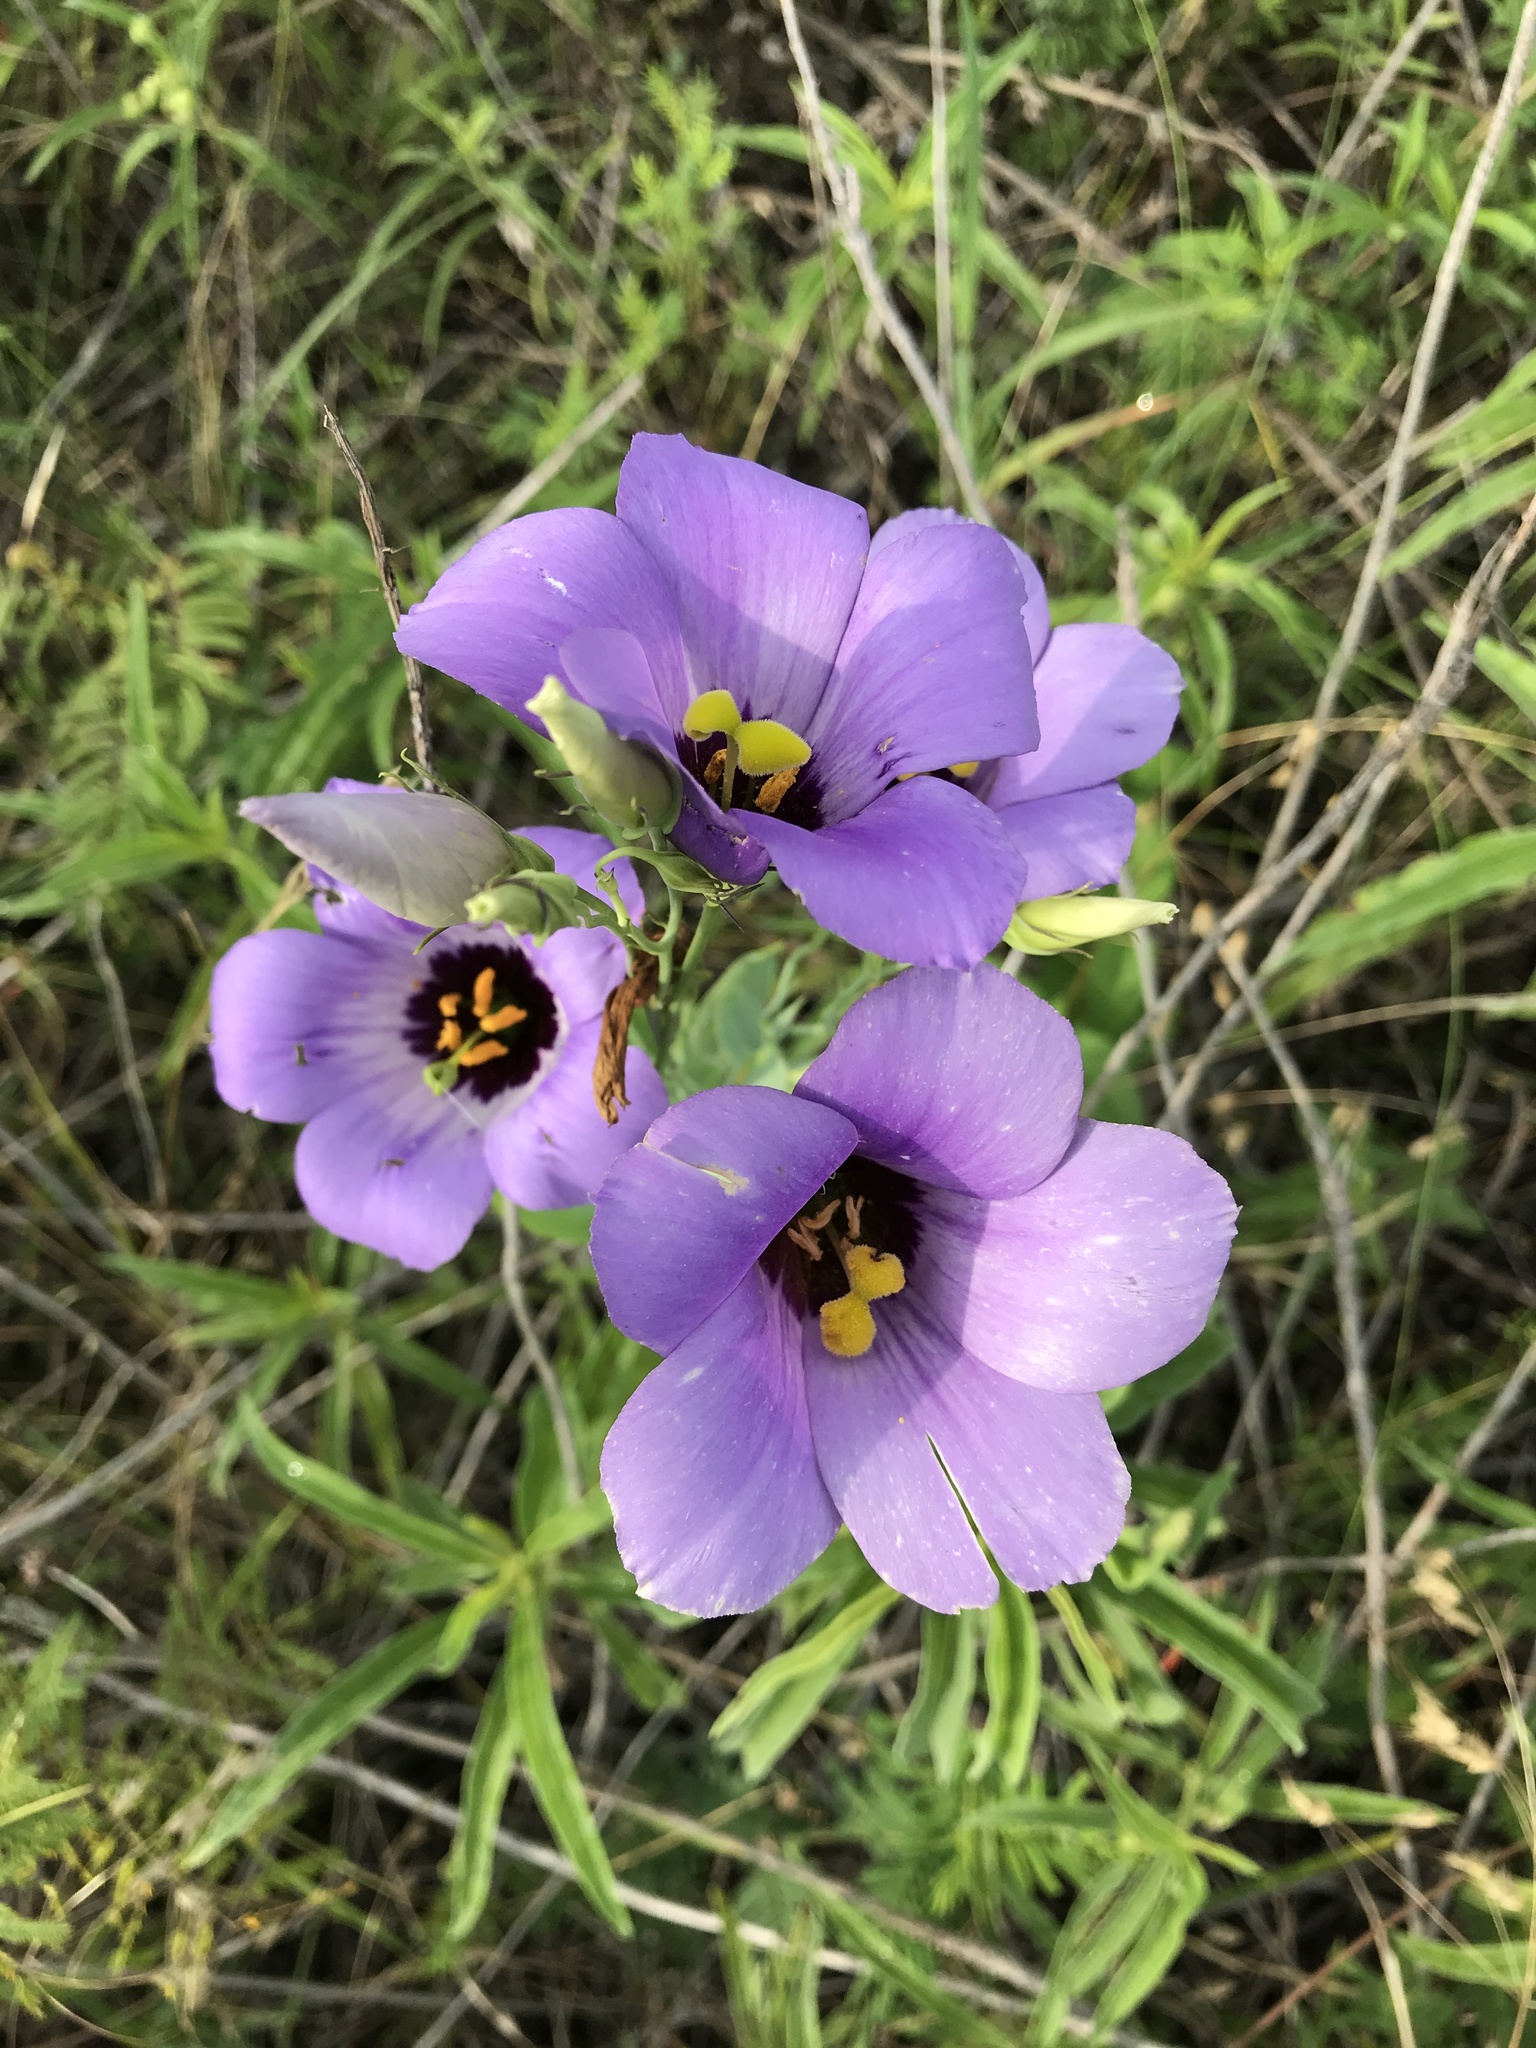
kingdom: Plantae
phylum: Tracheophyta
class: Magnoliopsida
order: Gentianales
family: Gentianaceae
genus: Eustoma
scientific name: Eustoma russellianum
